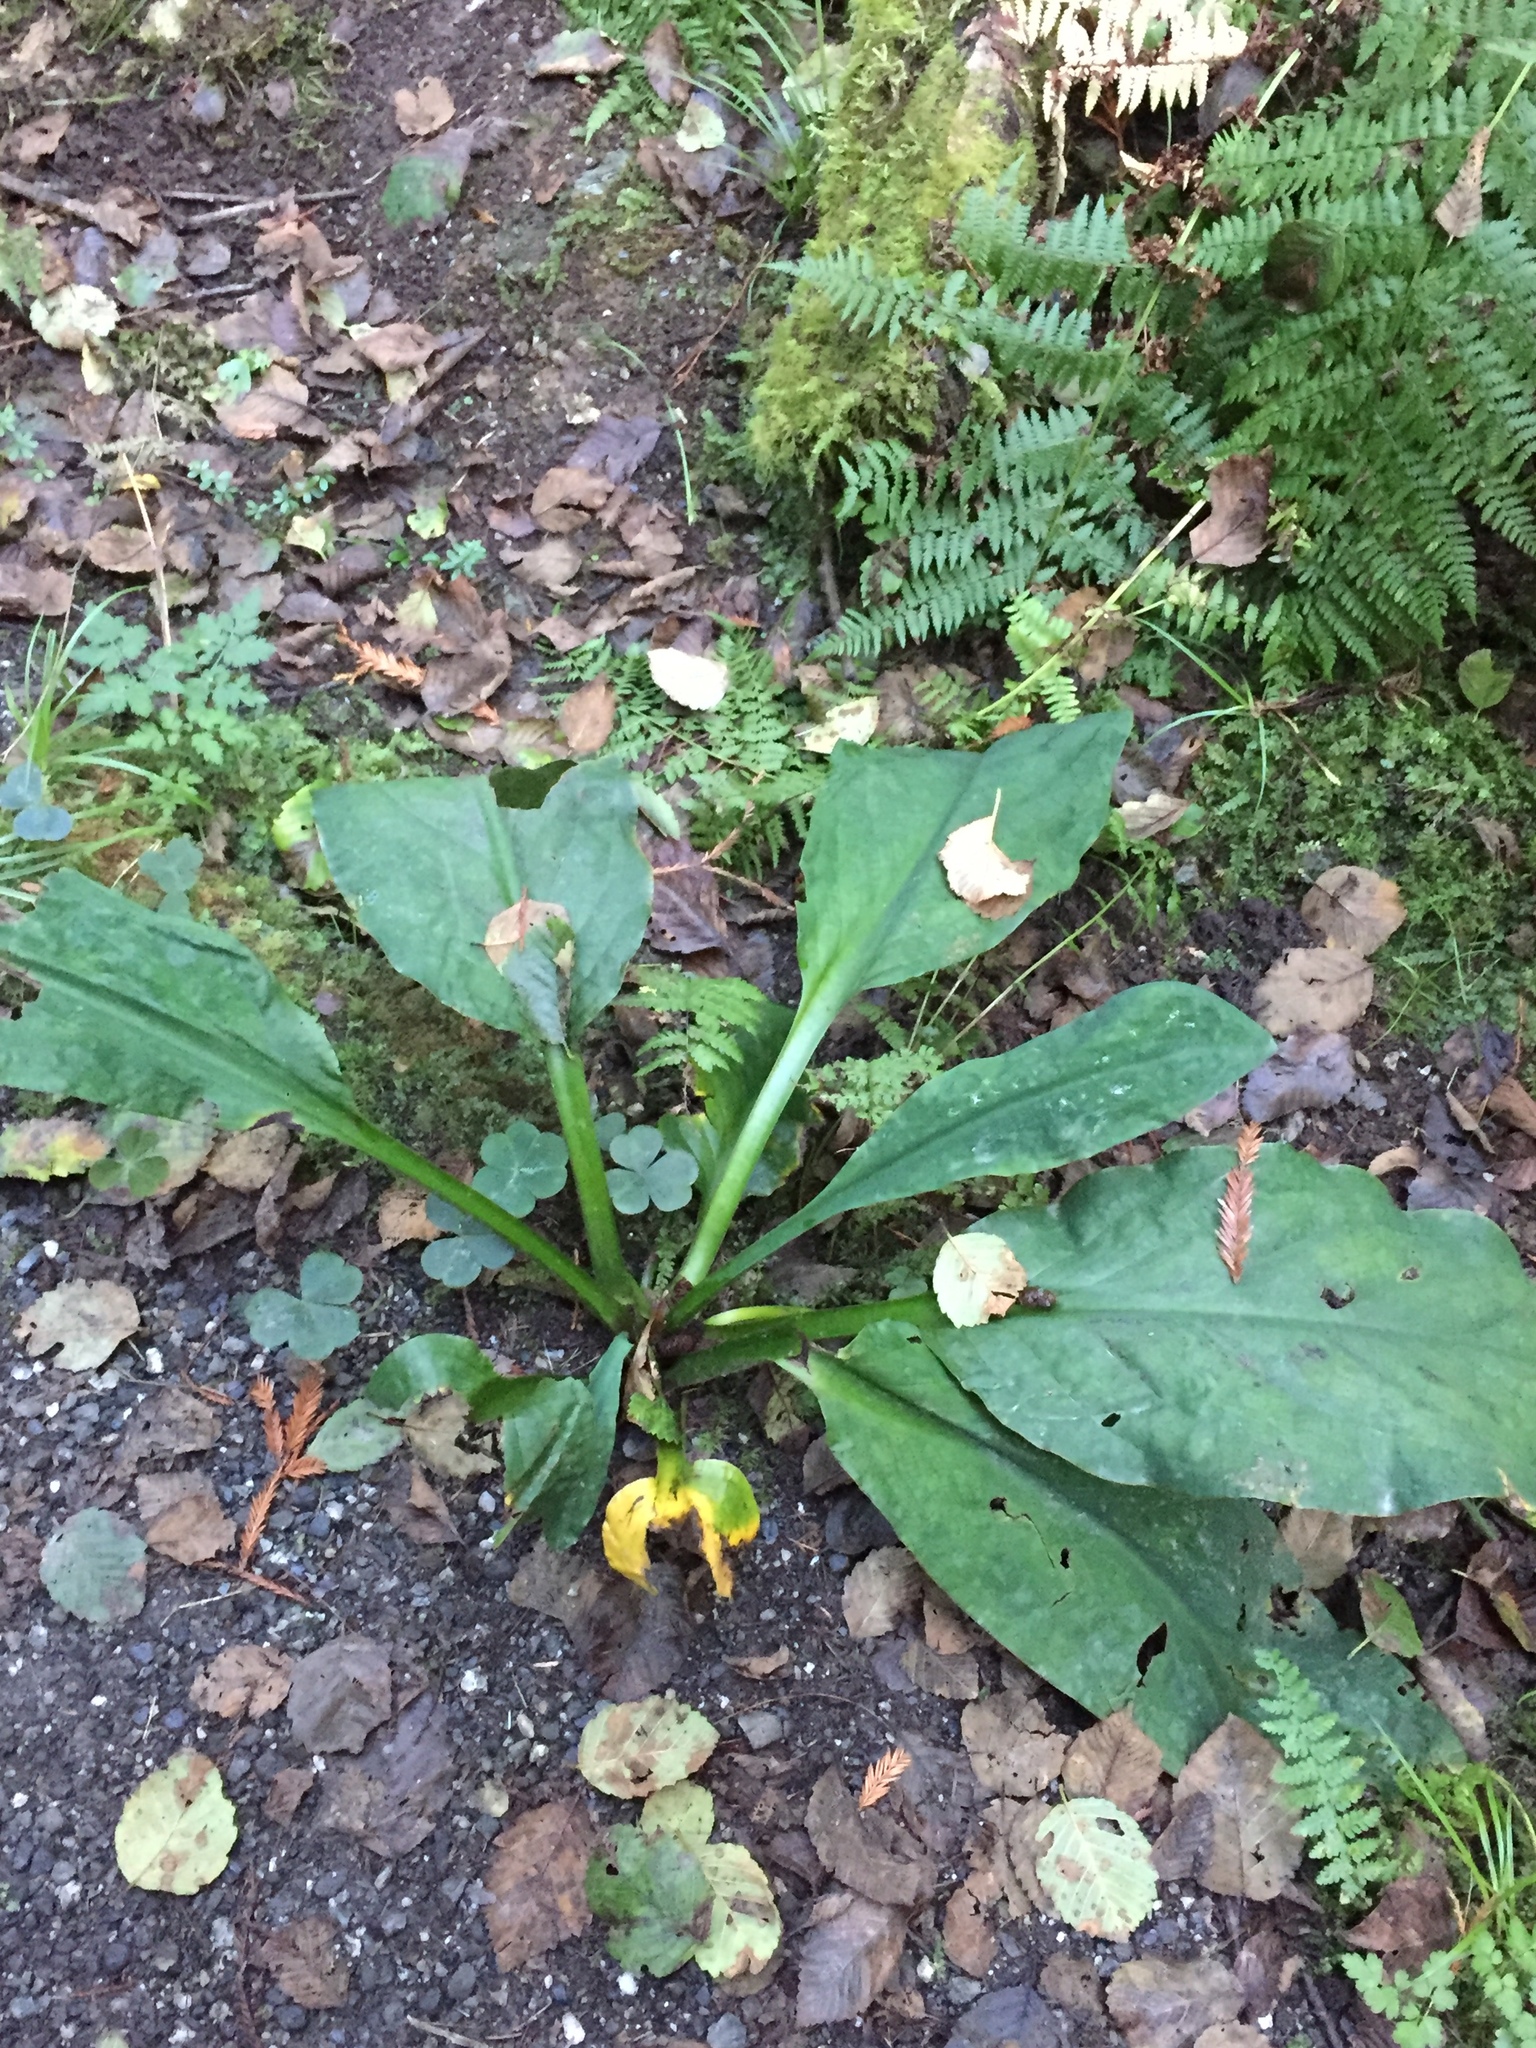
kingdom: Plantae
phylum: Tracheophyta
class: Liliopsida
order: Alismatales
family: Araceae
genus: Lysichiton
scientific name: Lysichiton americanus
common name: American skunk cabbage
